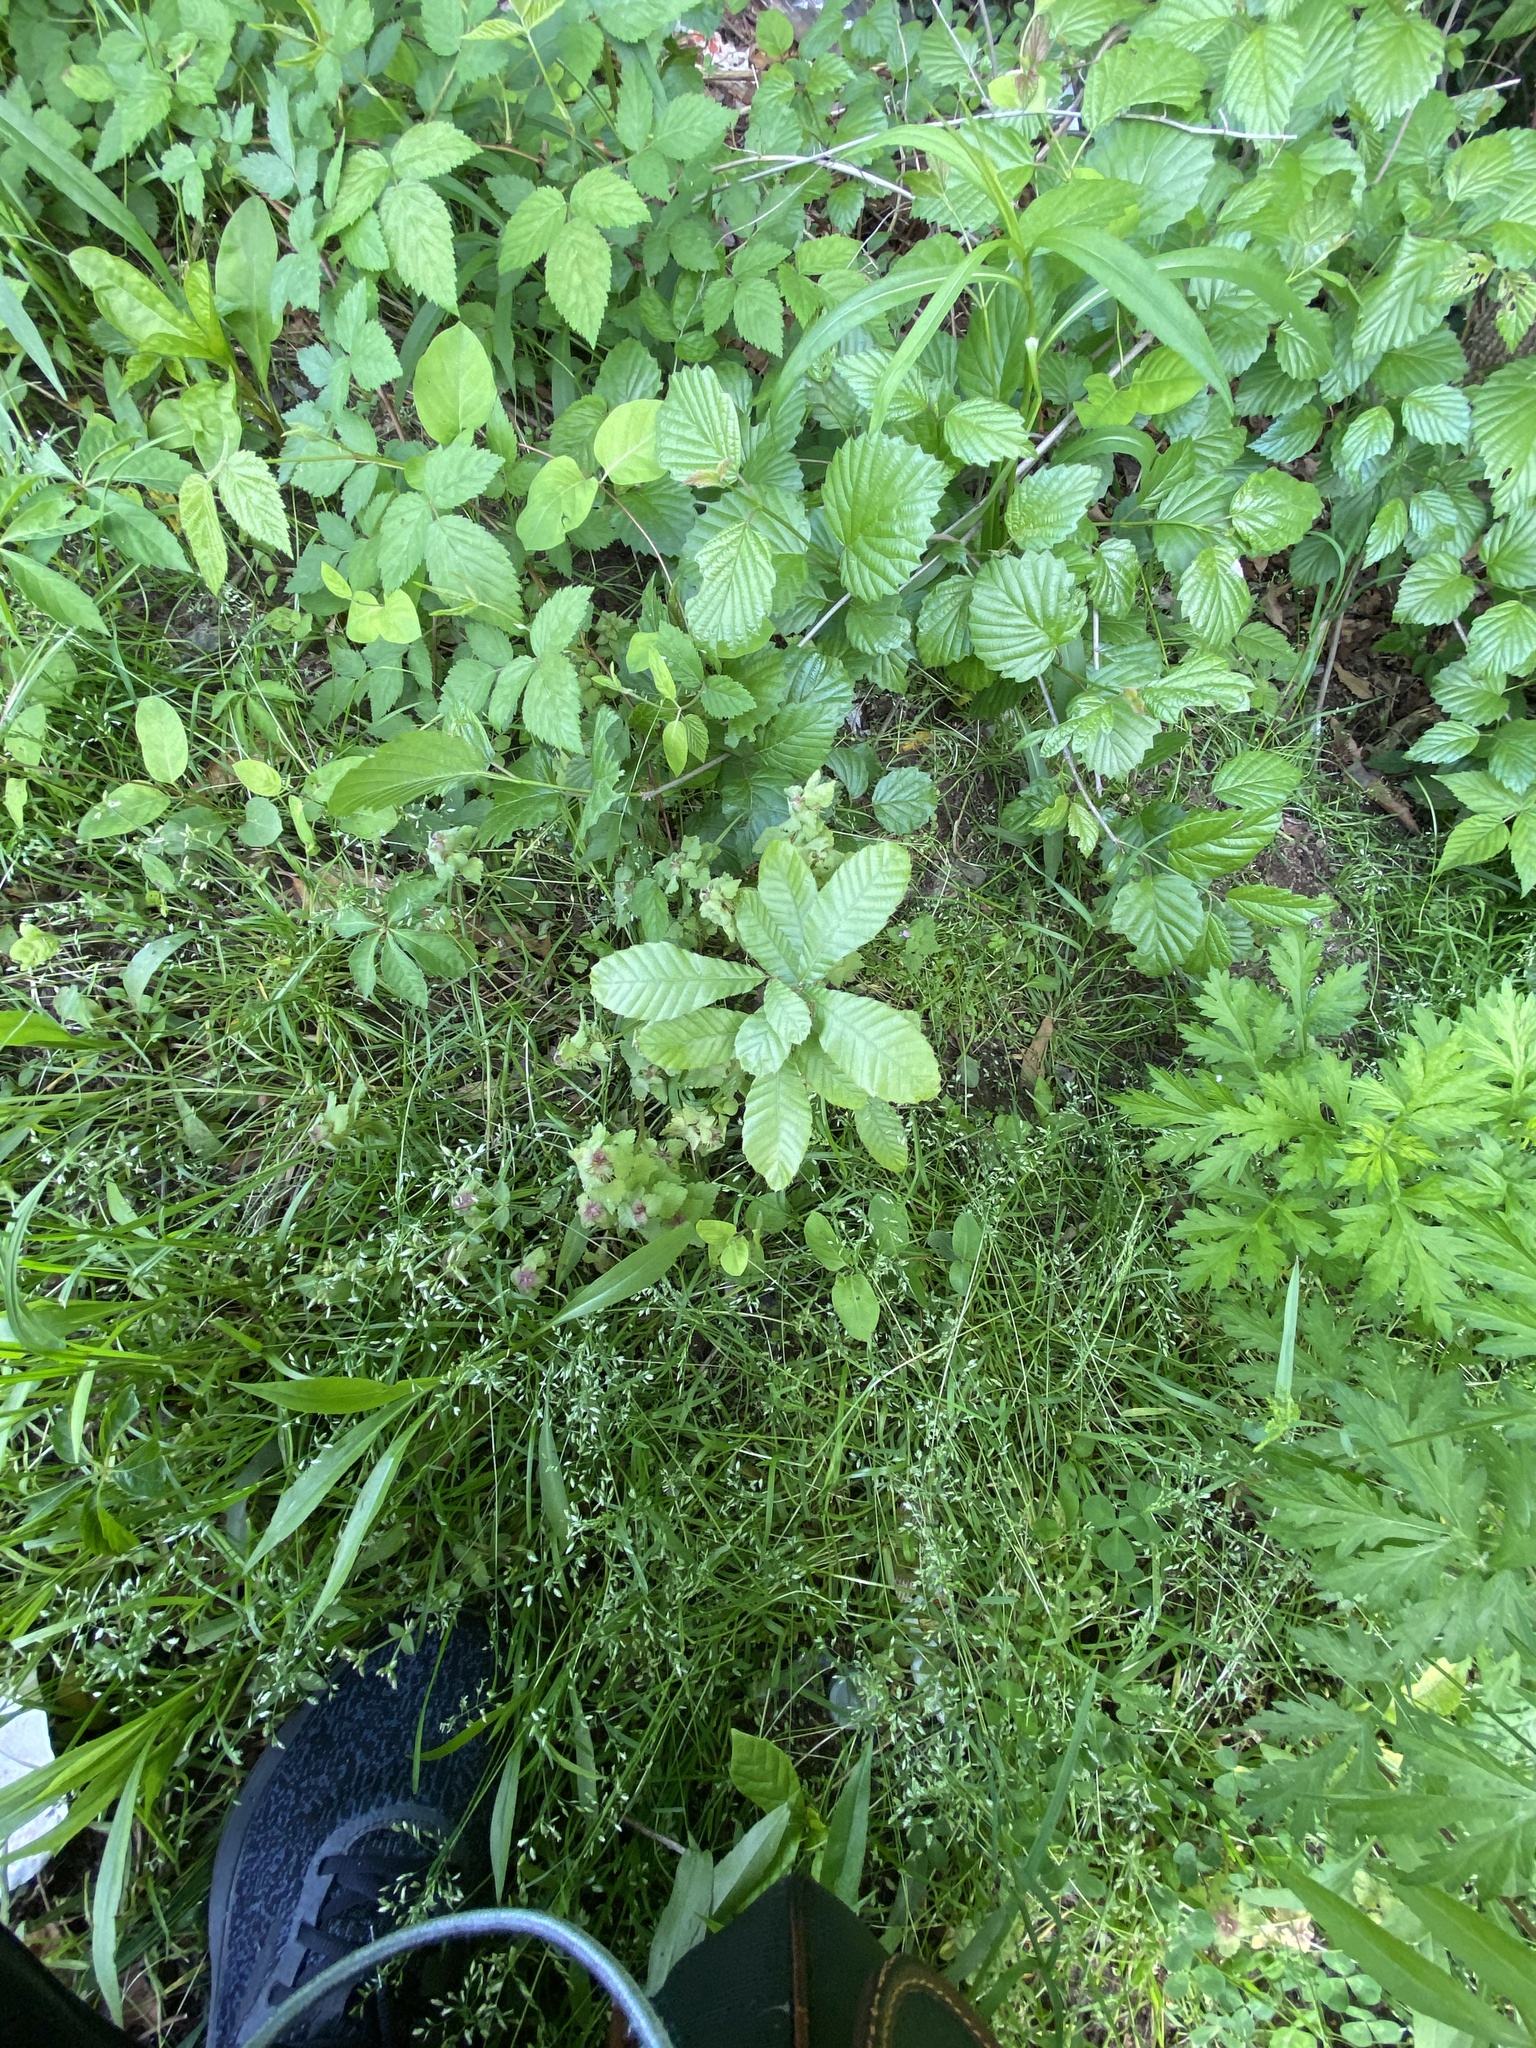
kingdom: Plantae
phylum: Tracheophyta
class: Magnoliopsida
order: Fagales
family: Fagaceae
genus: Quercus
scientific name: Quercus acutissima
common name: Sawtooth oak
